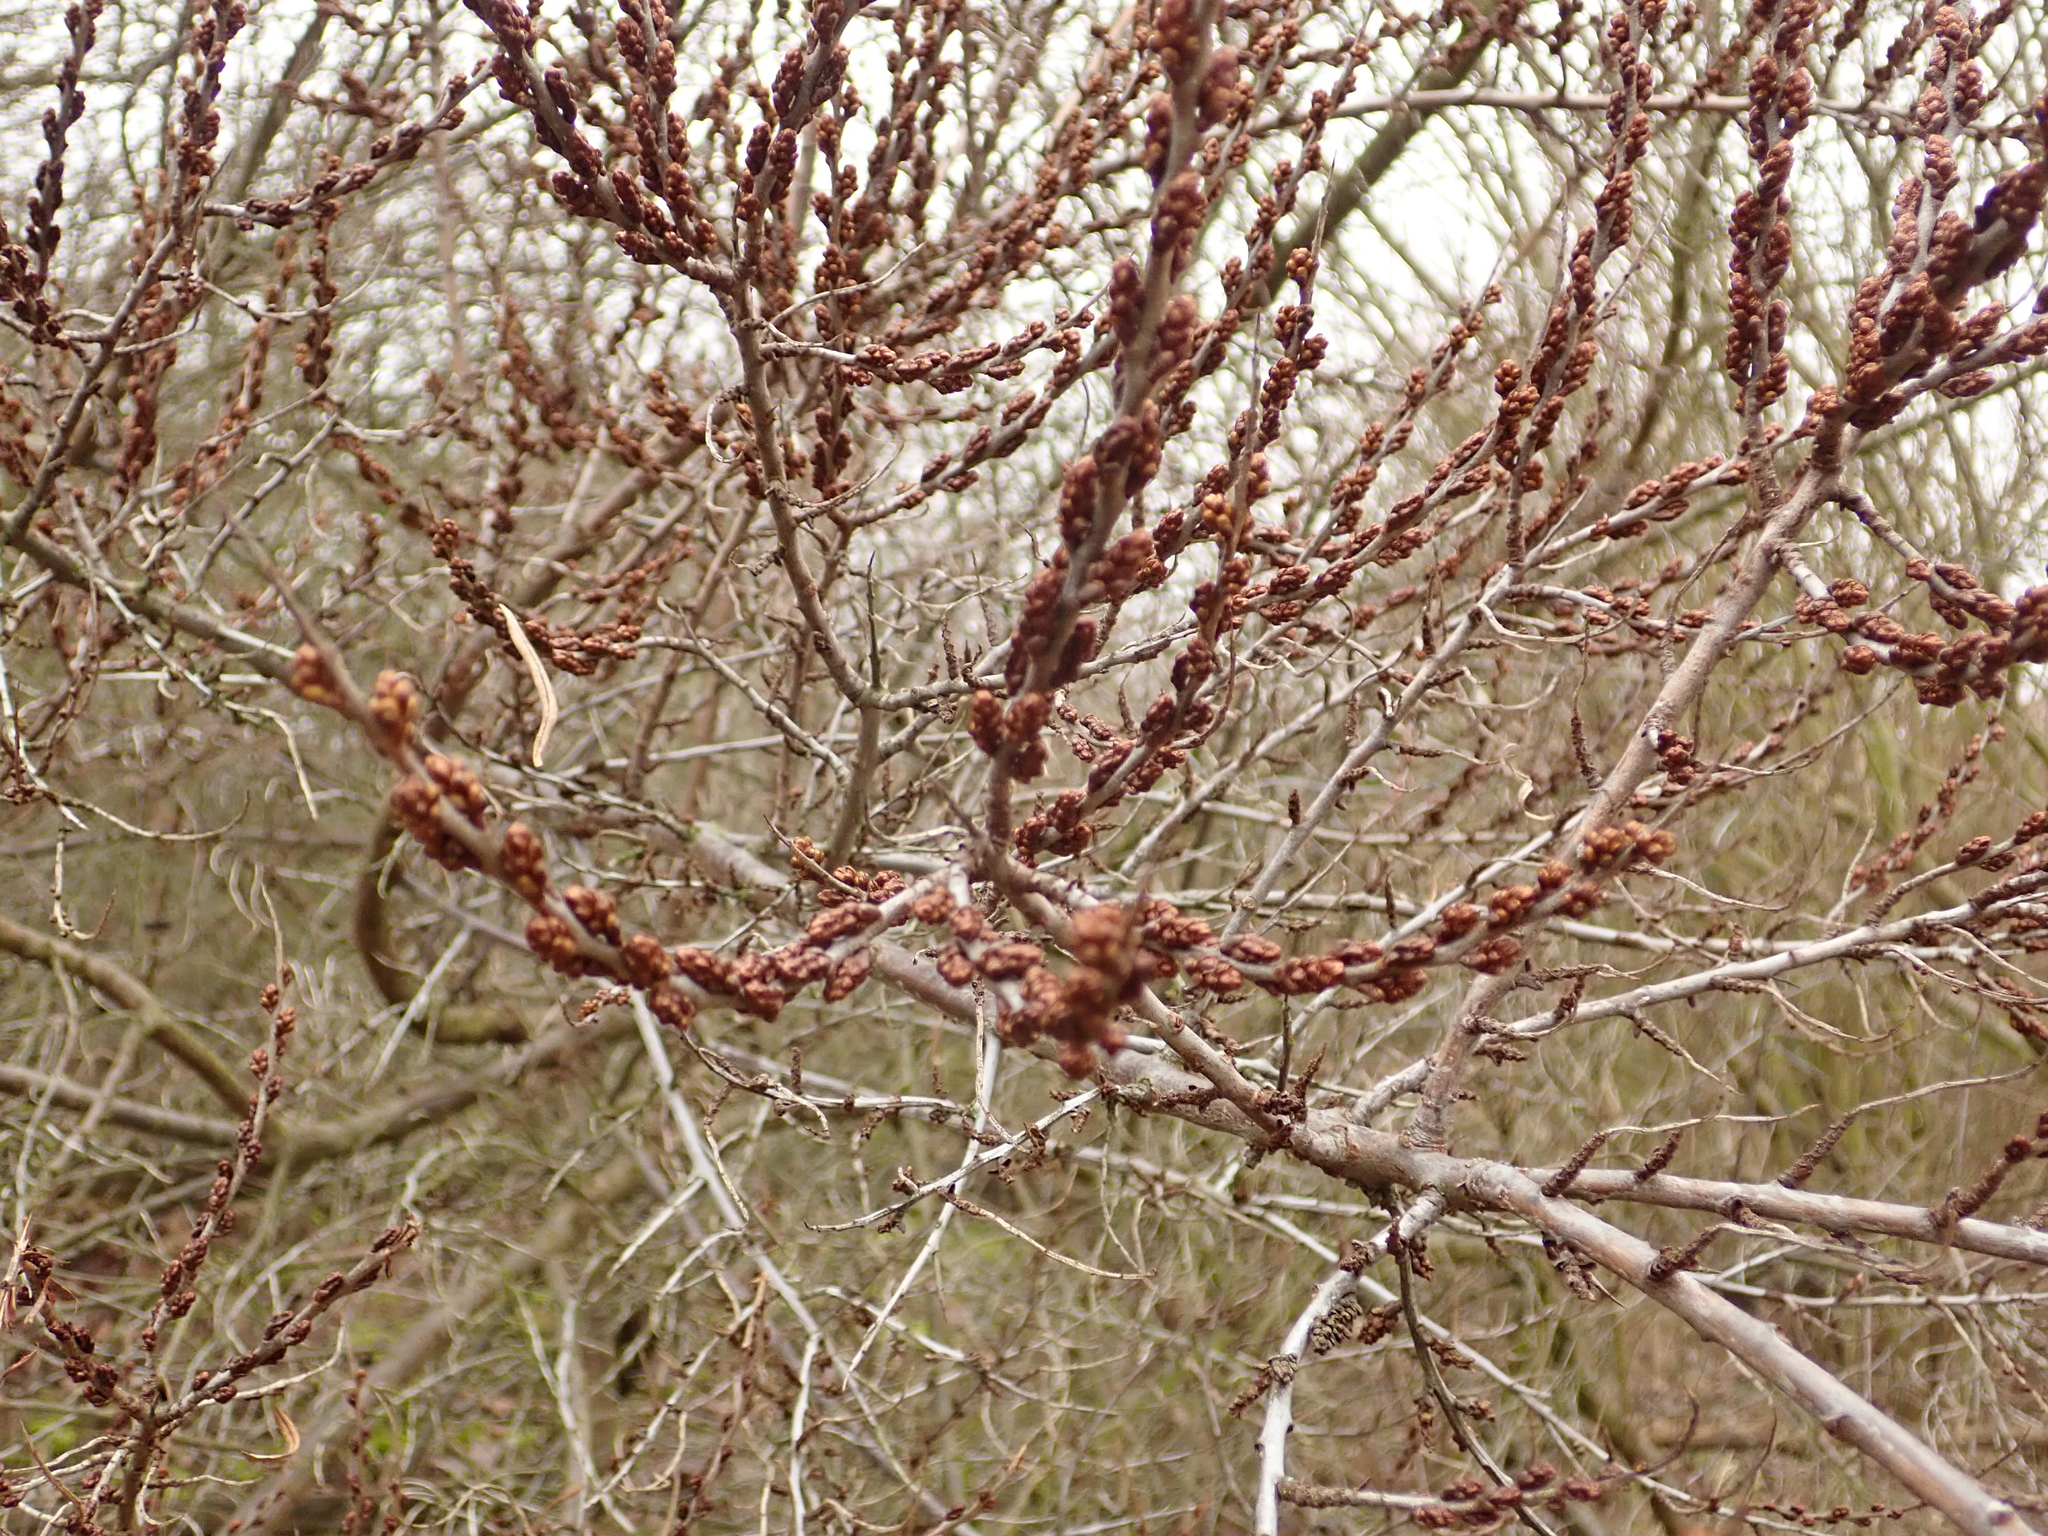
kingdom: Plantae
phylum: Tracheophyta
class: Magnoliopsida
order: Rosales
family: Elaeagnaceae
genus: Hippophae
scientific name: Hippophae rhamnoides
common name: Sea-buckthorn
